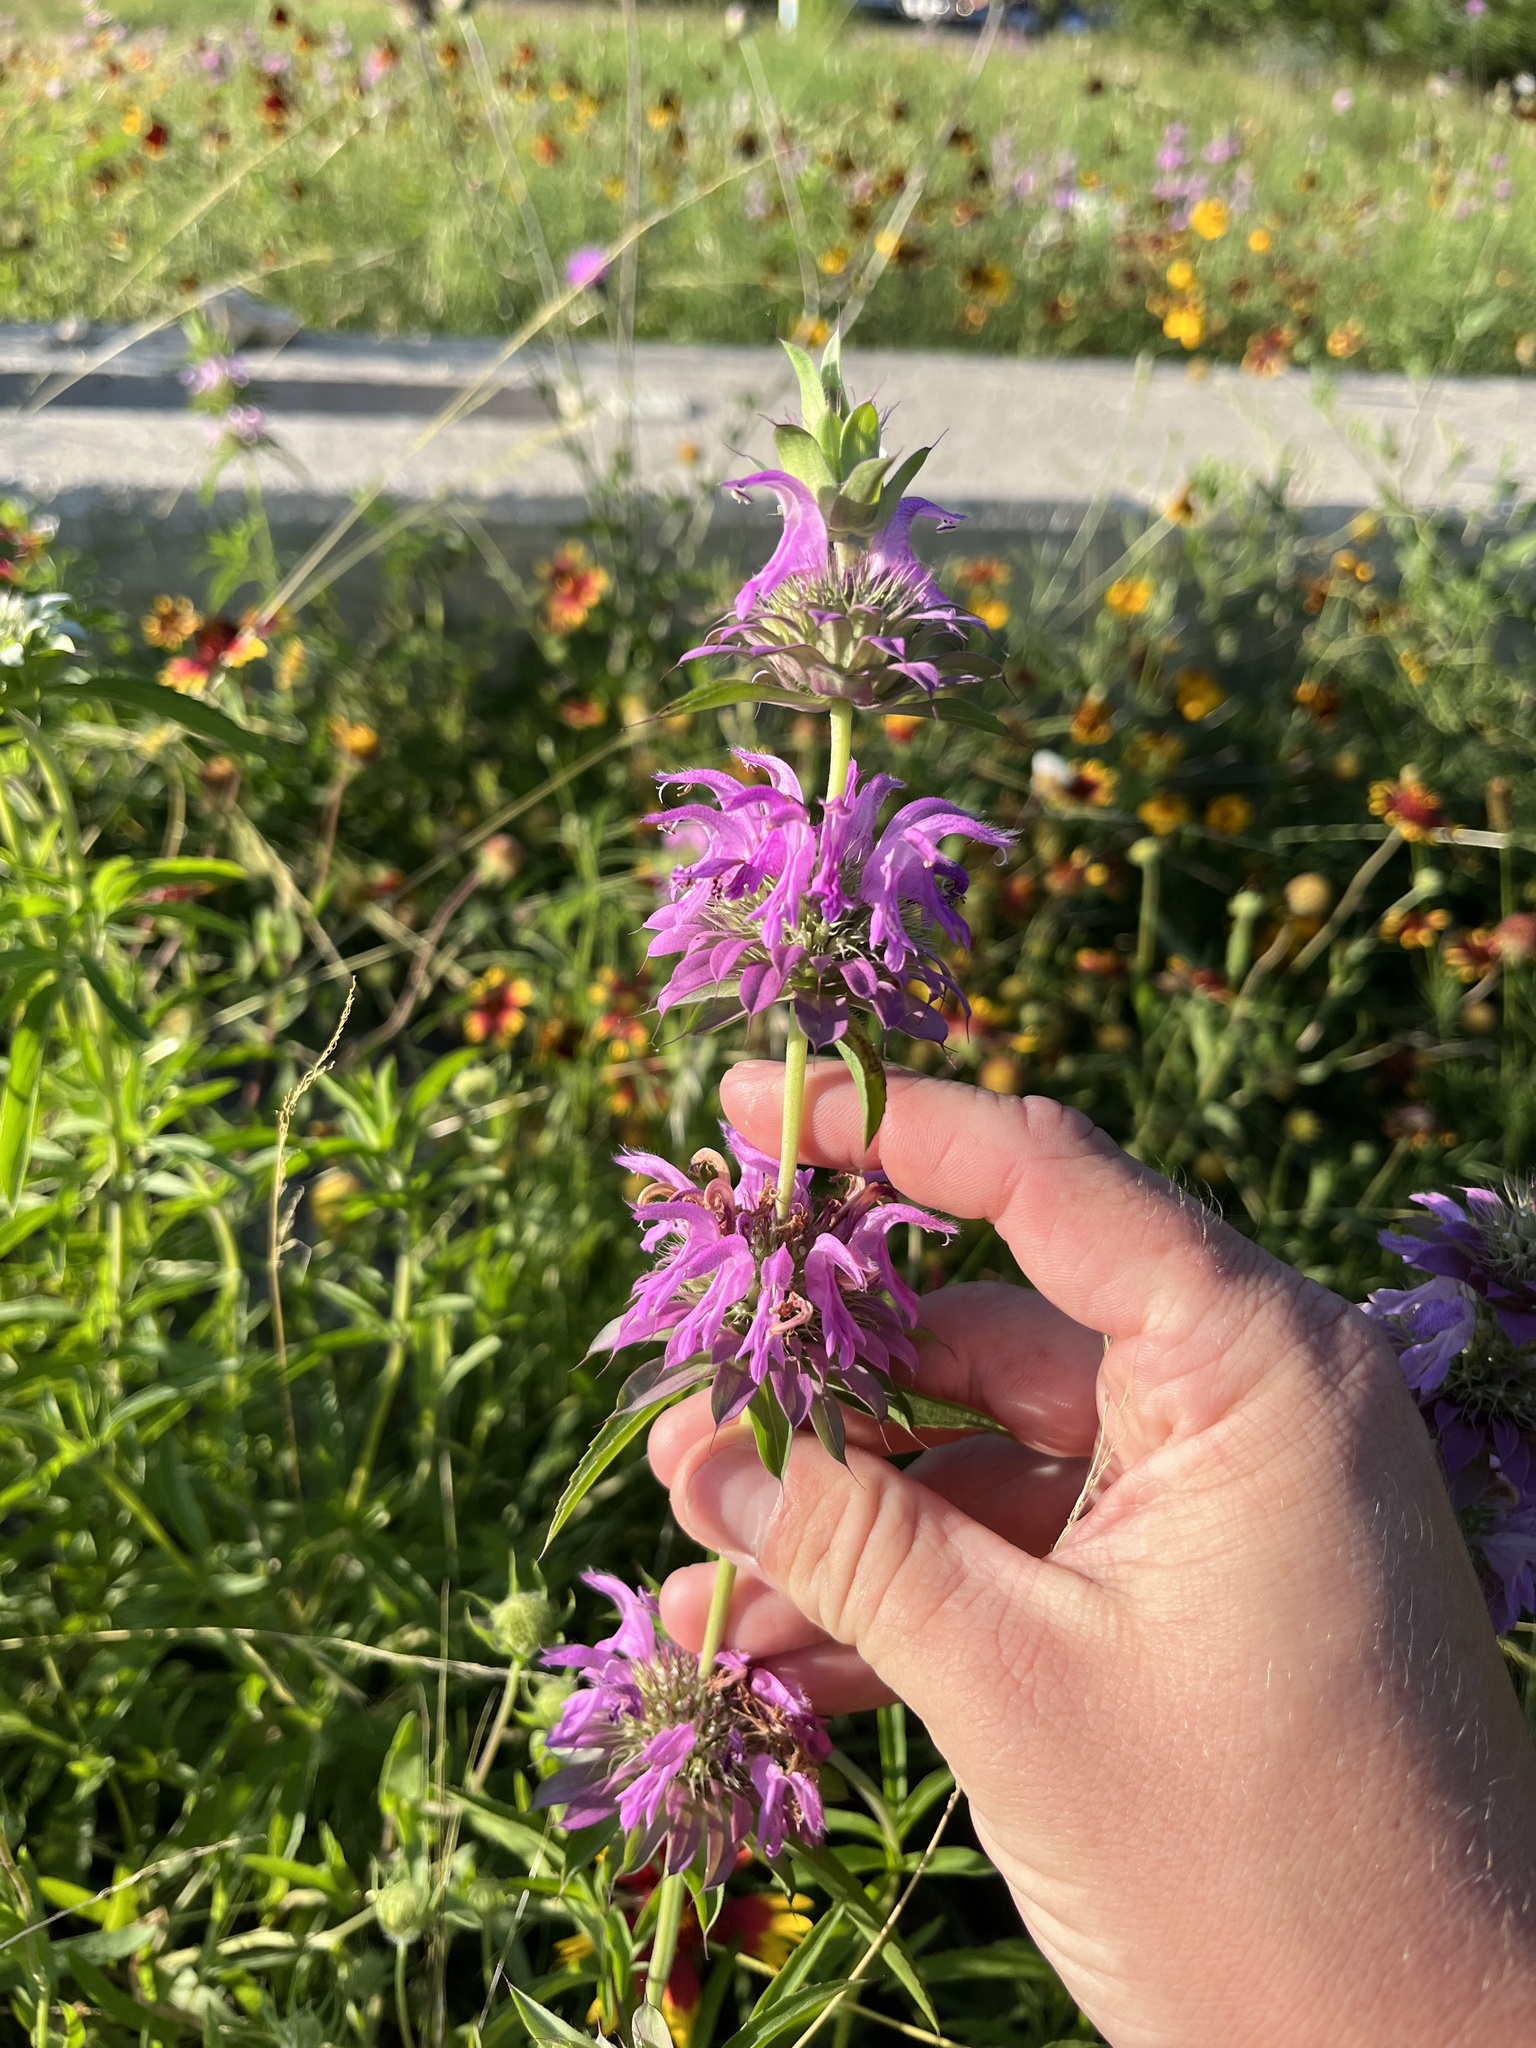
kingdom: Plantae
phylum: Tracheophyta
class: Magnoliopsida
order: Lamiales
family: Lamiaceae
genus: Monarda
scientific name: Monarda citriodora
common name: Lemon beebalm
